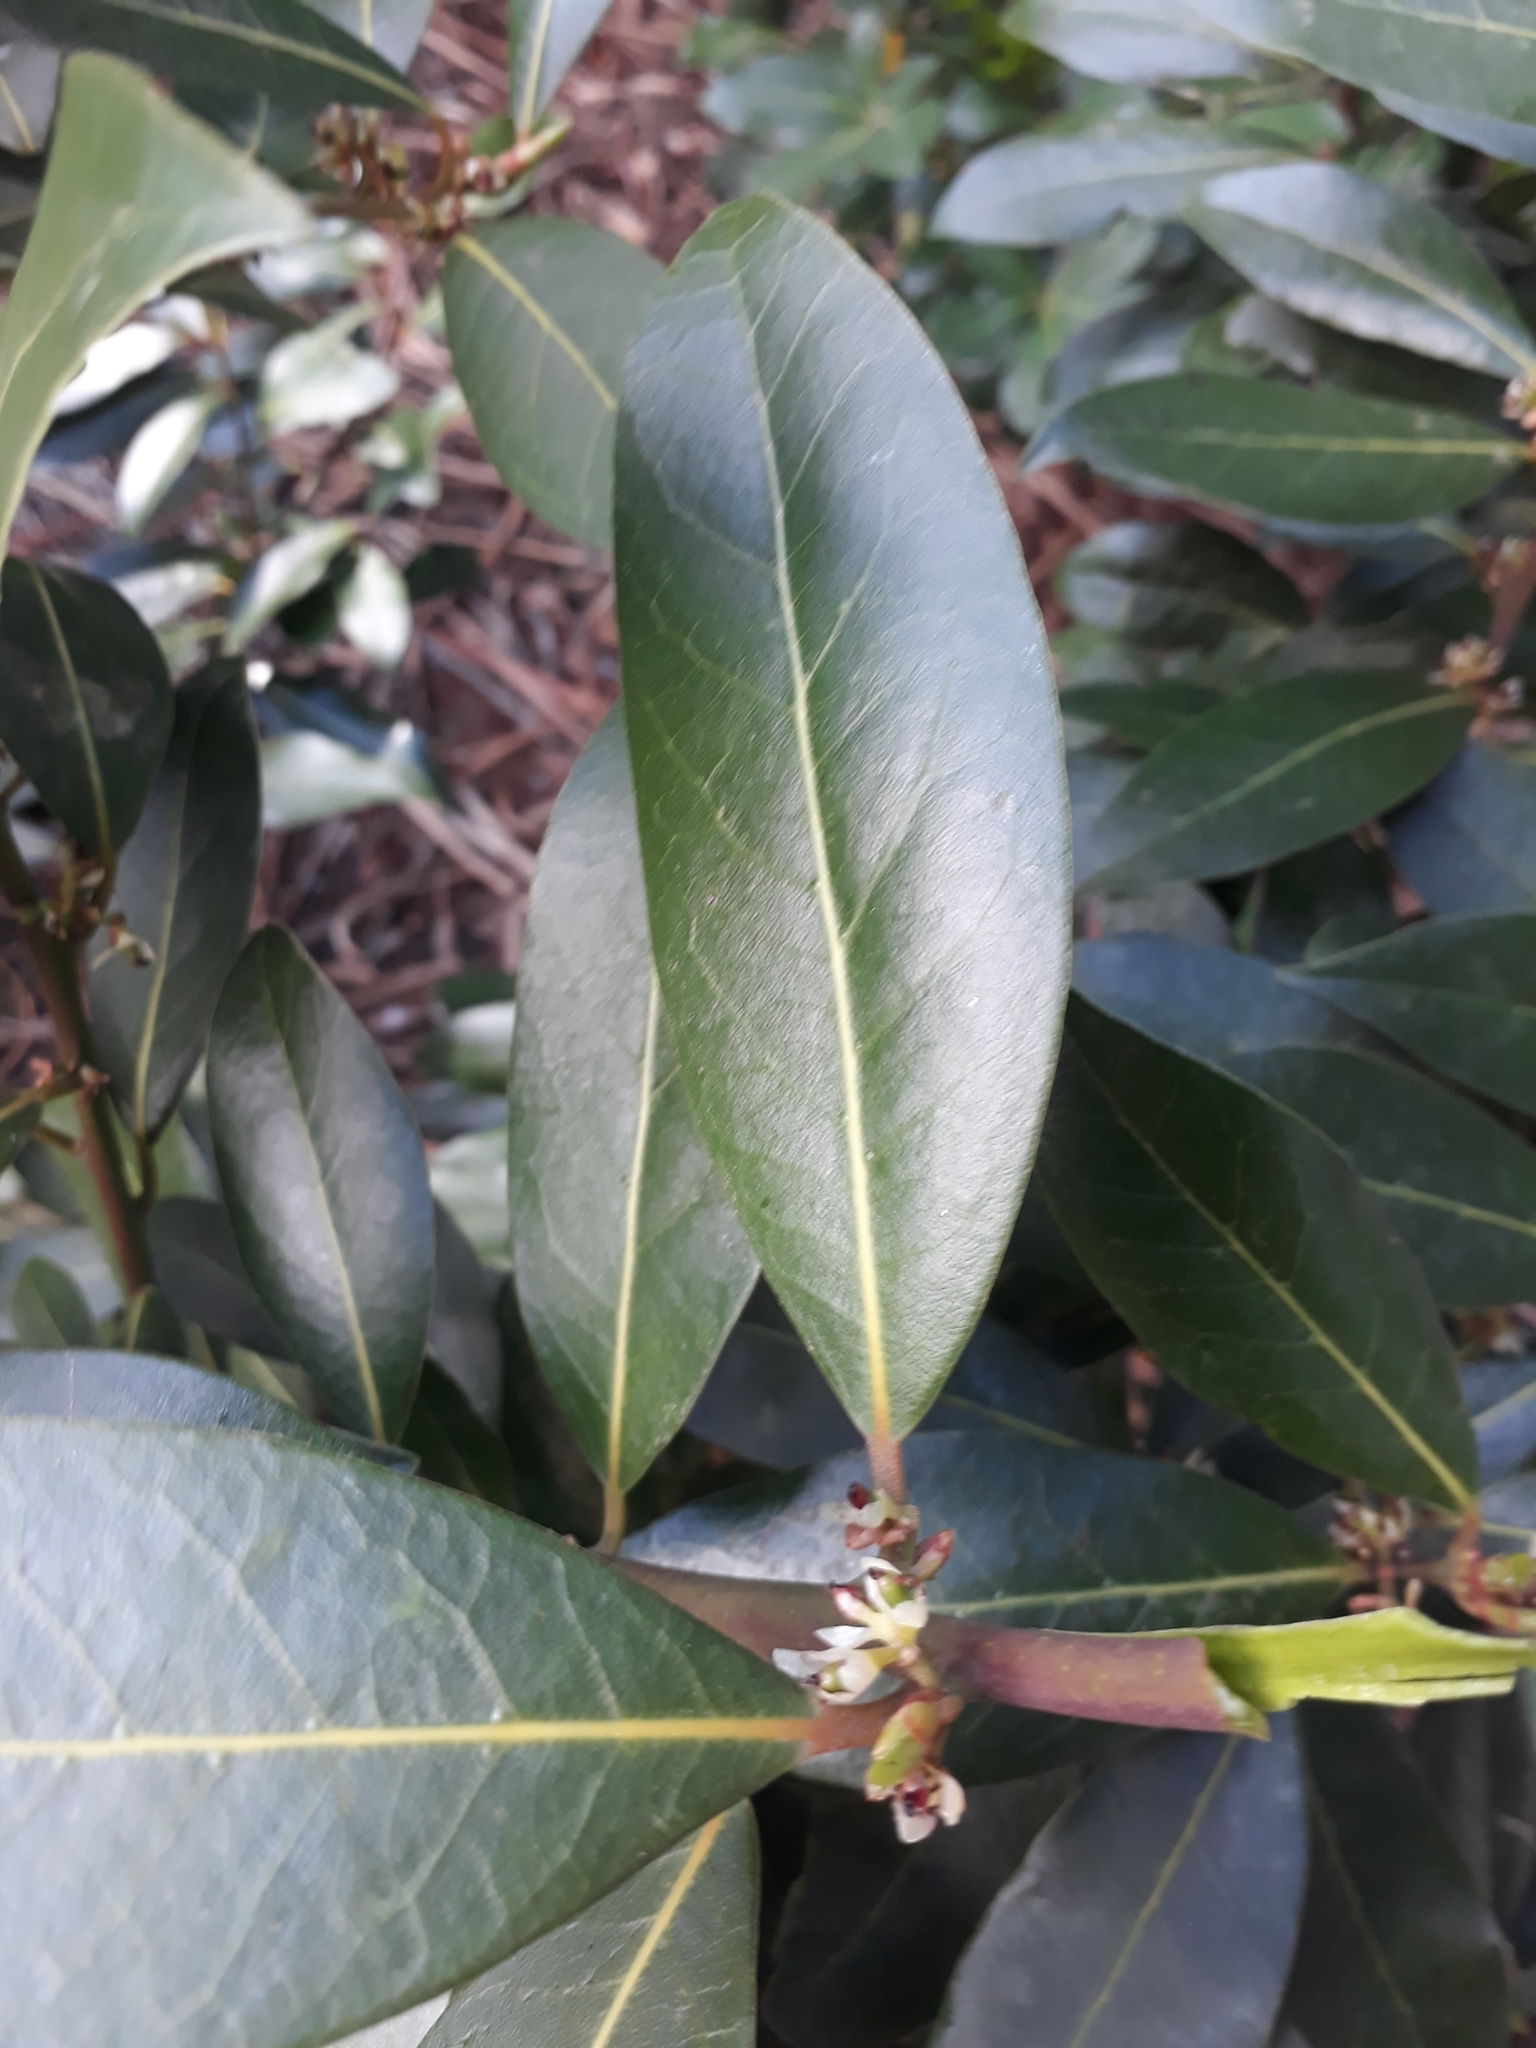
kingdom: Plantae
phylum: Tracheophyta
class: Magnoliopsida
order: Laurales
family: Lauraceae
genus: Laurus
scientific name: Laurus nobilis
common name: Bay
